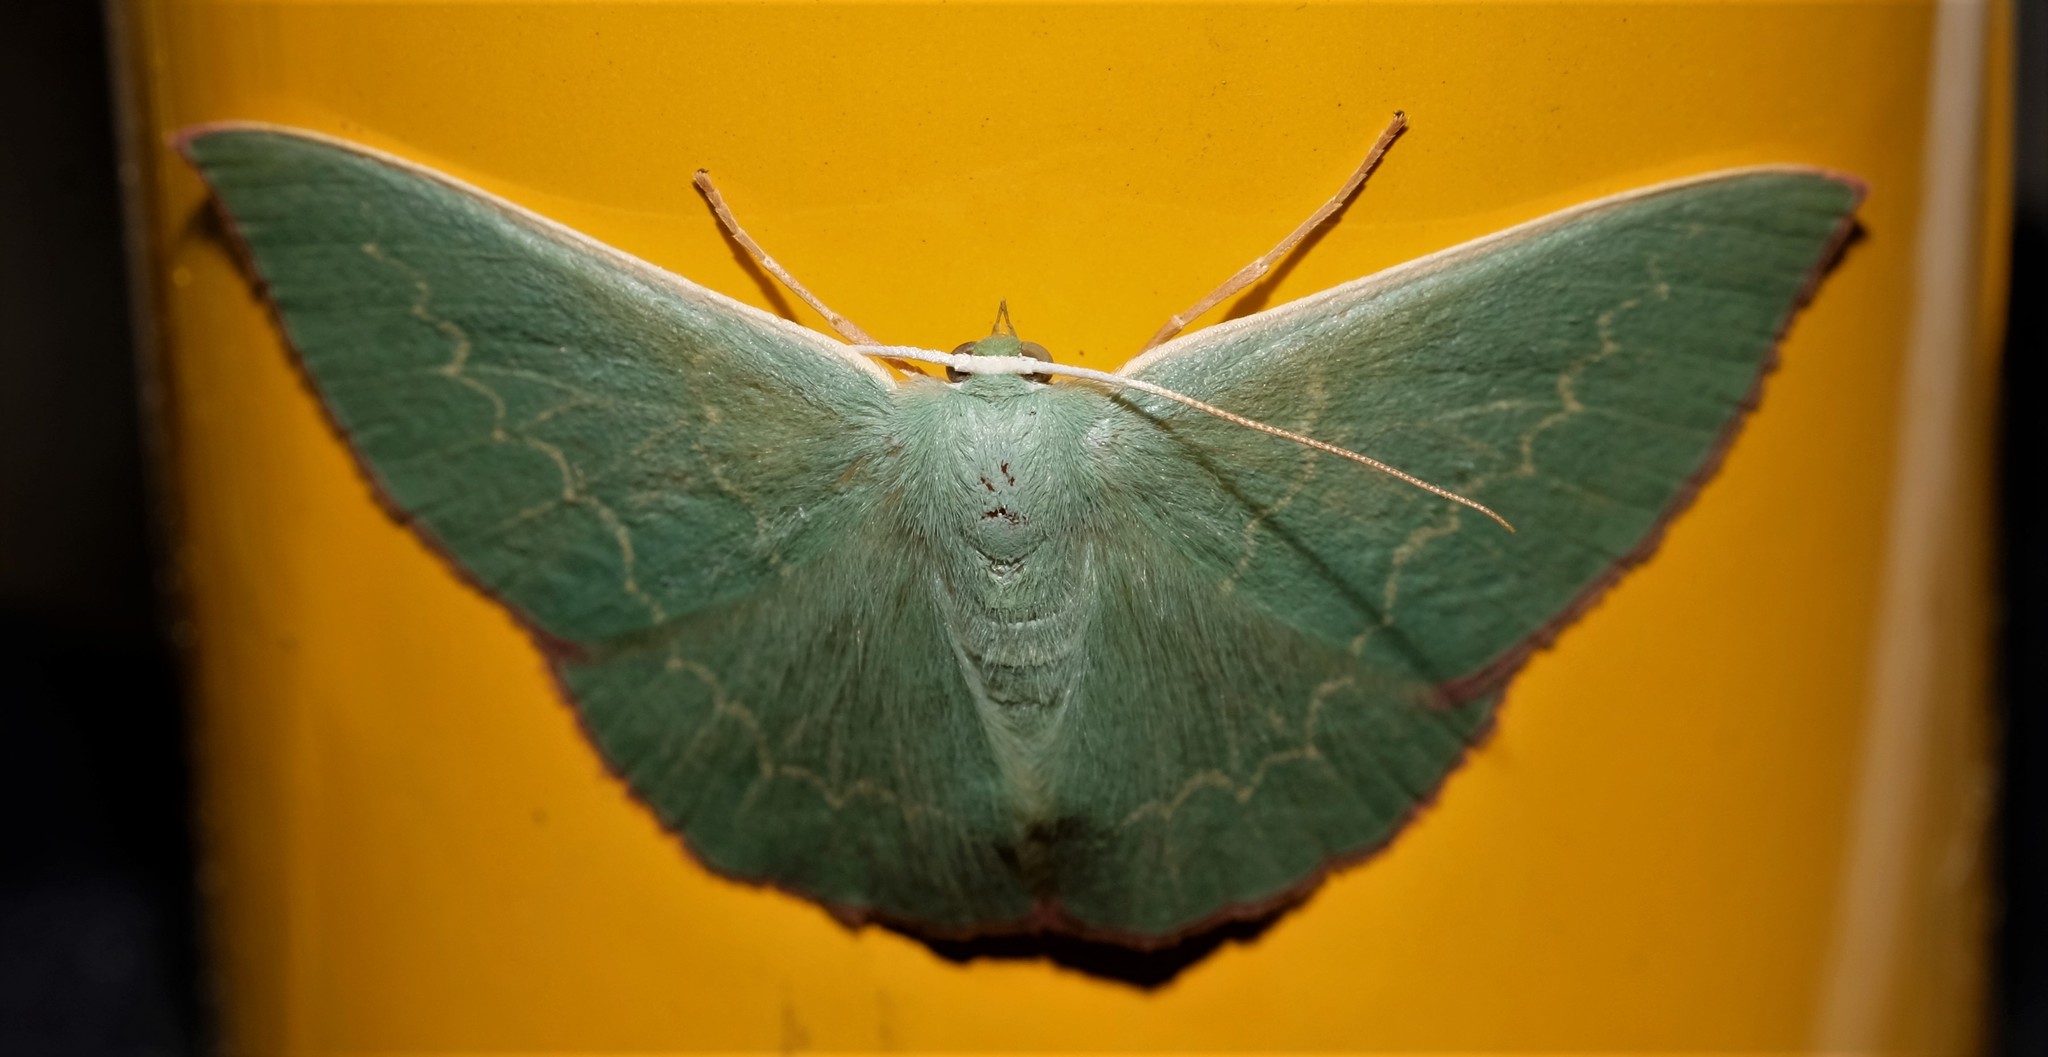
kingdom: Animalia
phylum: Arthropoda
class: Insecta
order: Lepidoptera
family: Geometridae
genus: Prasinocyma
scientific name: Prasinocyma semicrocea
